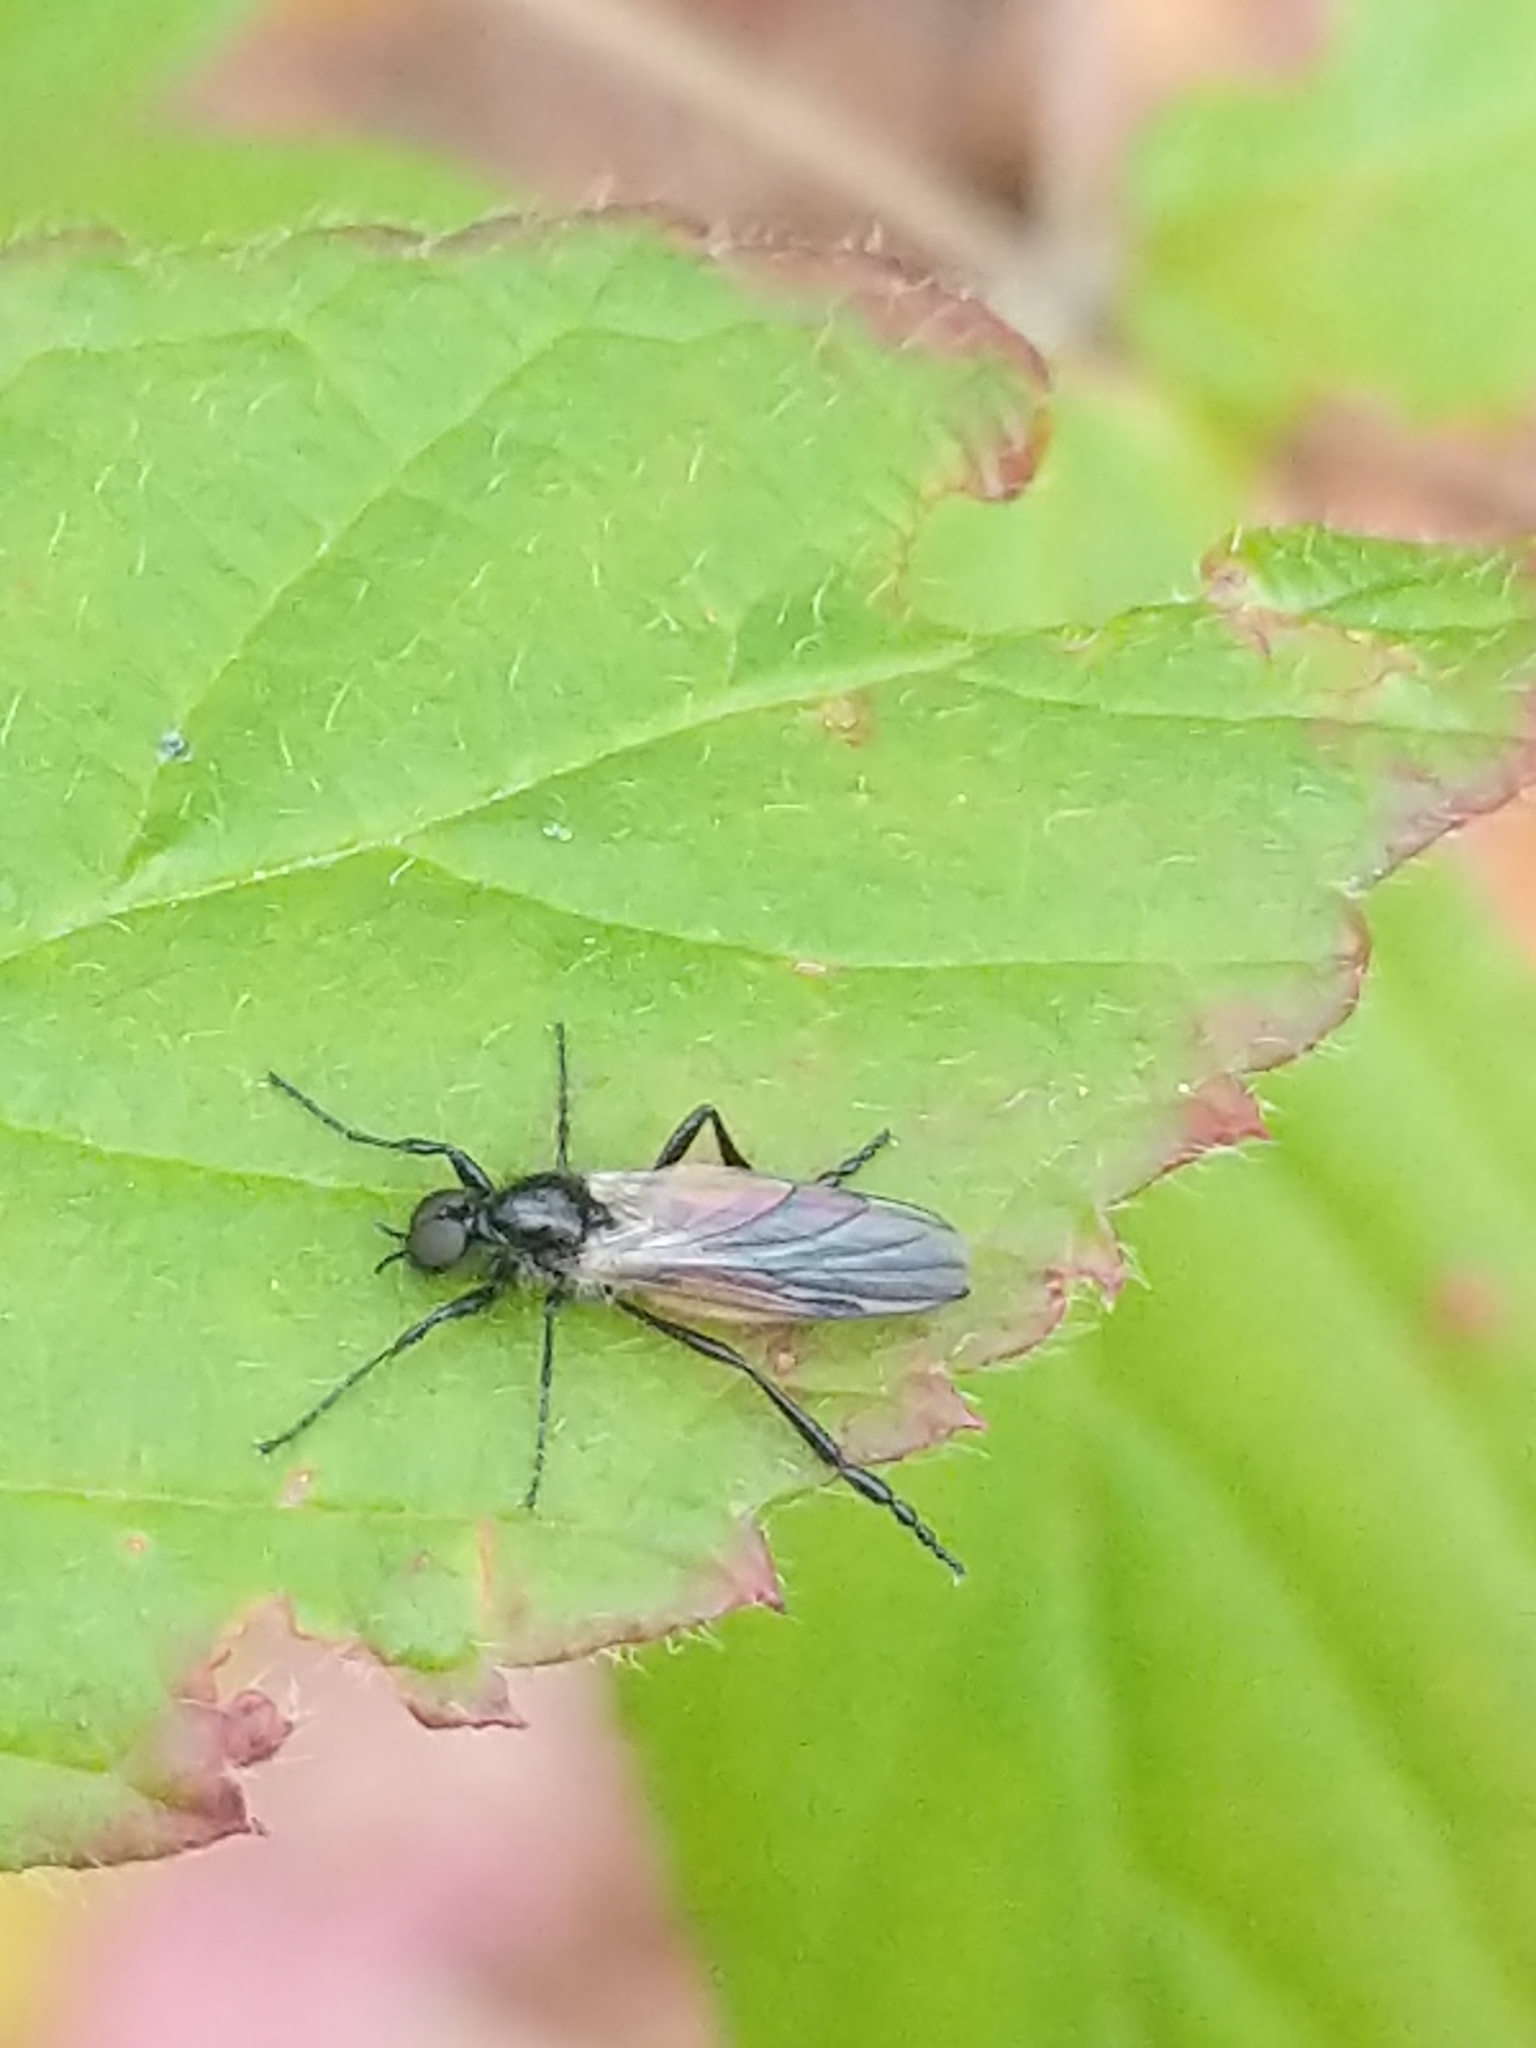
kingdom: Animalia
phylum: Arthropoda
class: Insecta
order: Diptera
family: Bibionidae
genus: Bibio
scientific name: Bibio slossonae
